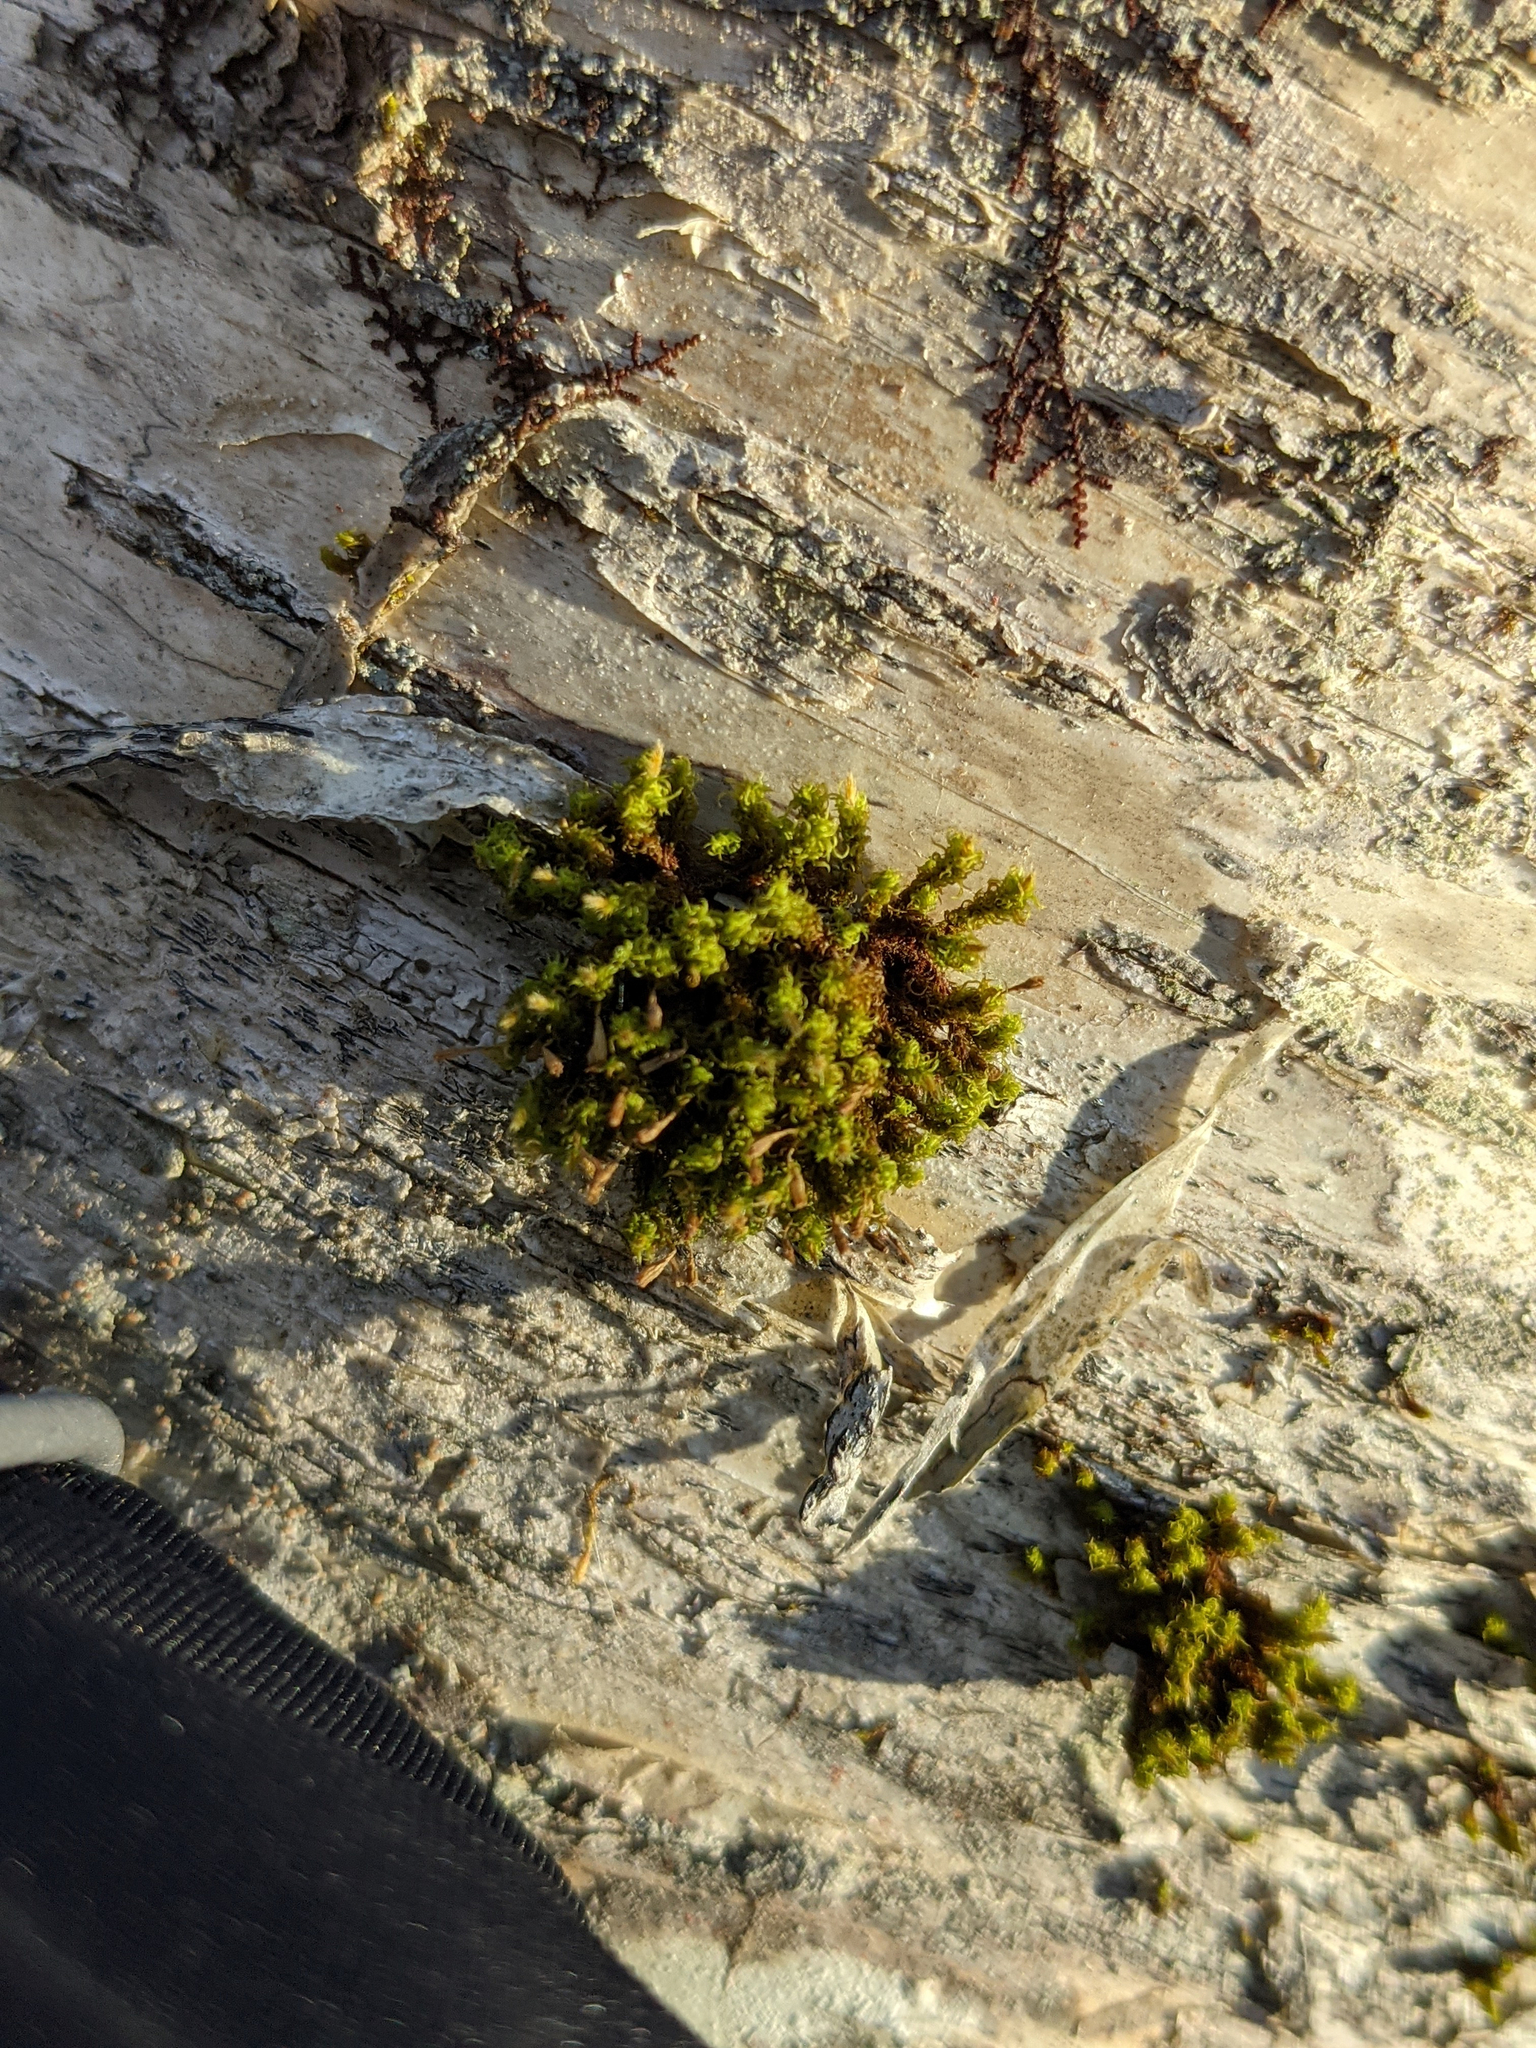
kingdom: Plantae
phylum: Bryophyta
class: Bryopsida
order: Orthotrichales
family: Orthotrichaceae
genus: Ulota
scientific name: Ulota crispa
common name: Crisped pincushion moss
